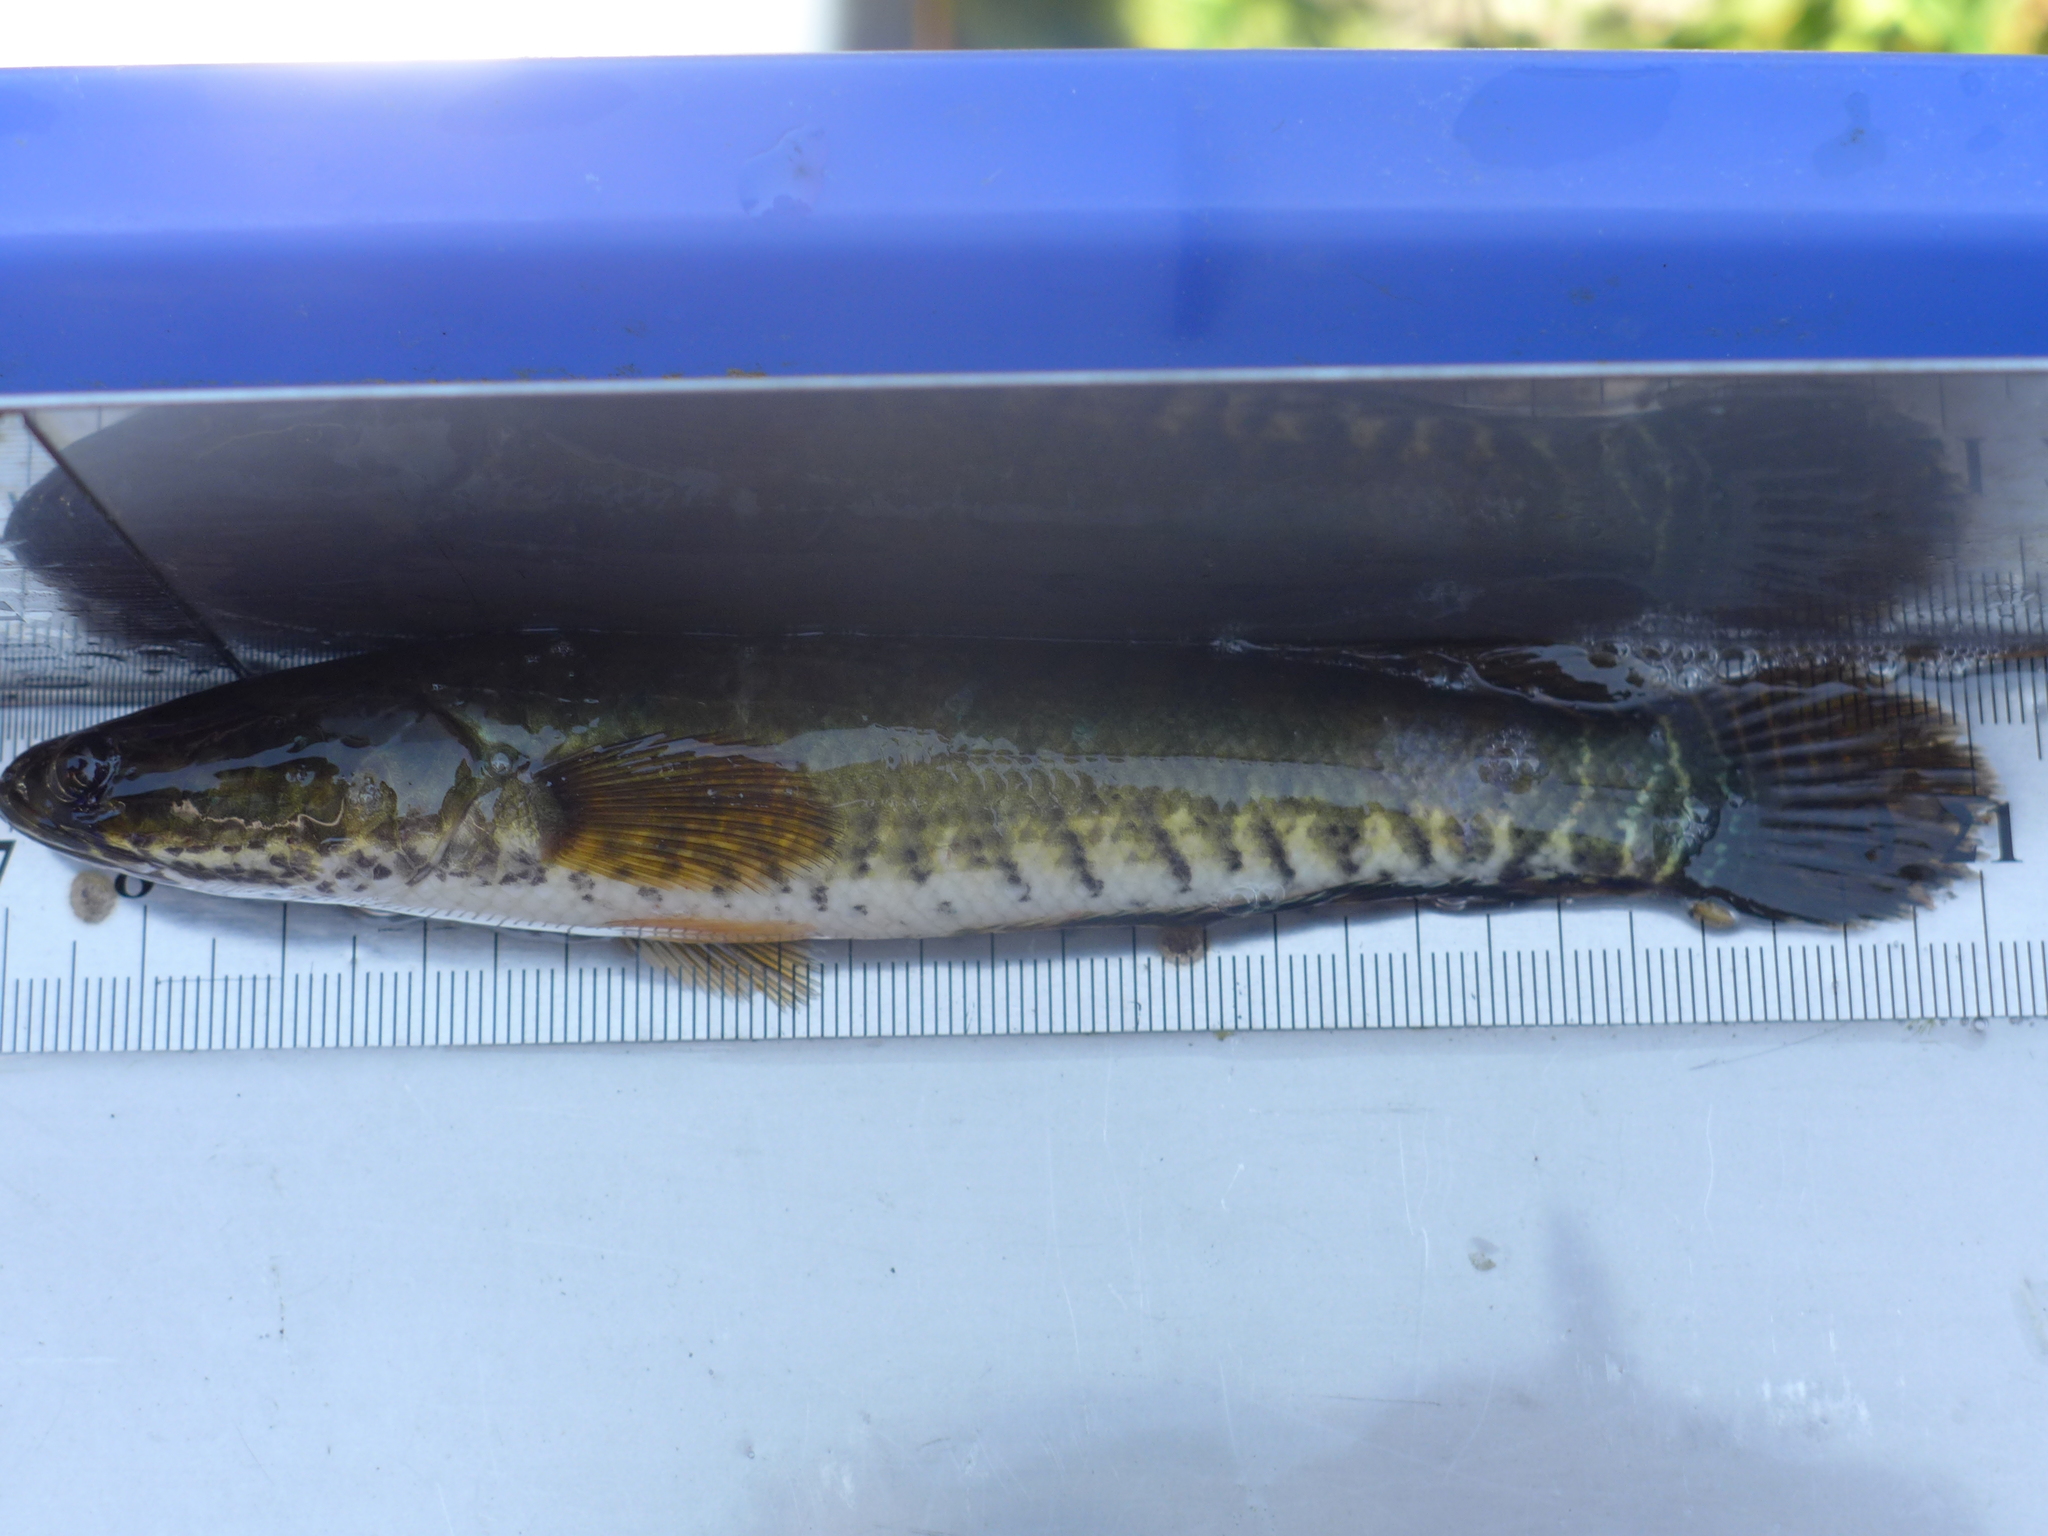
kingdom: Animalia
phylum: Chordata
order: Perciformes
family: Channidae
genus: Channa
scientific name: Channa striata
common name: Striped snakehead
